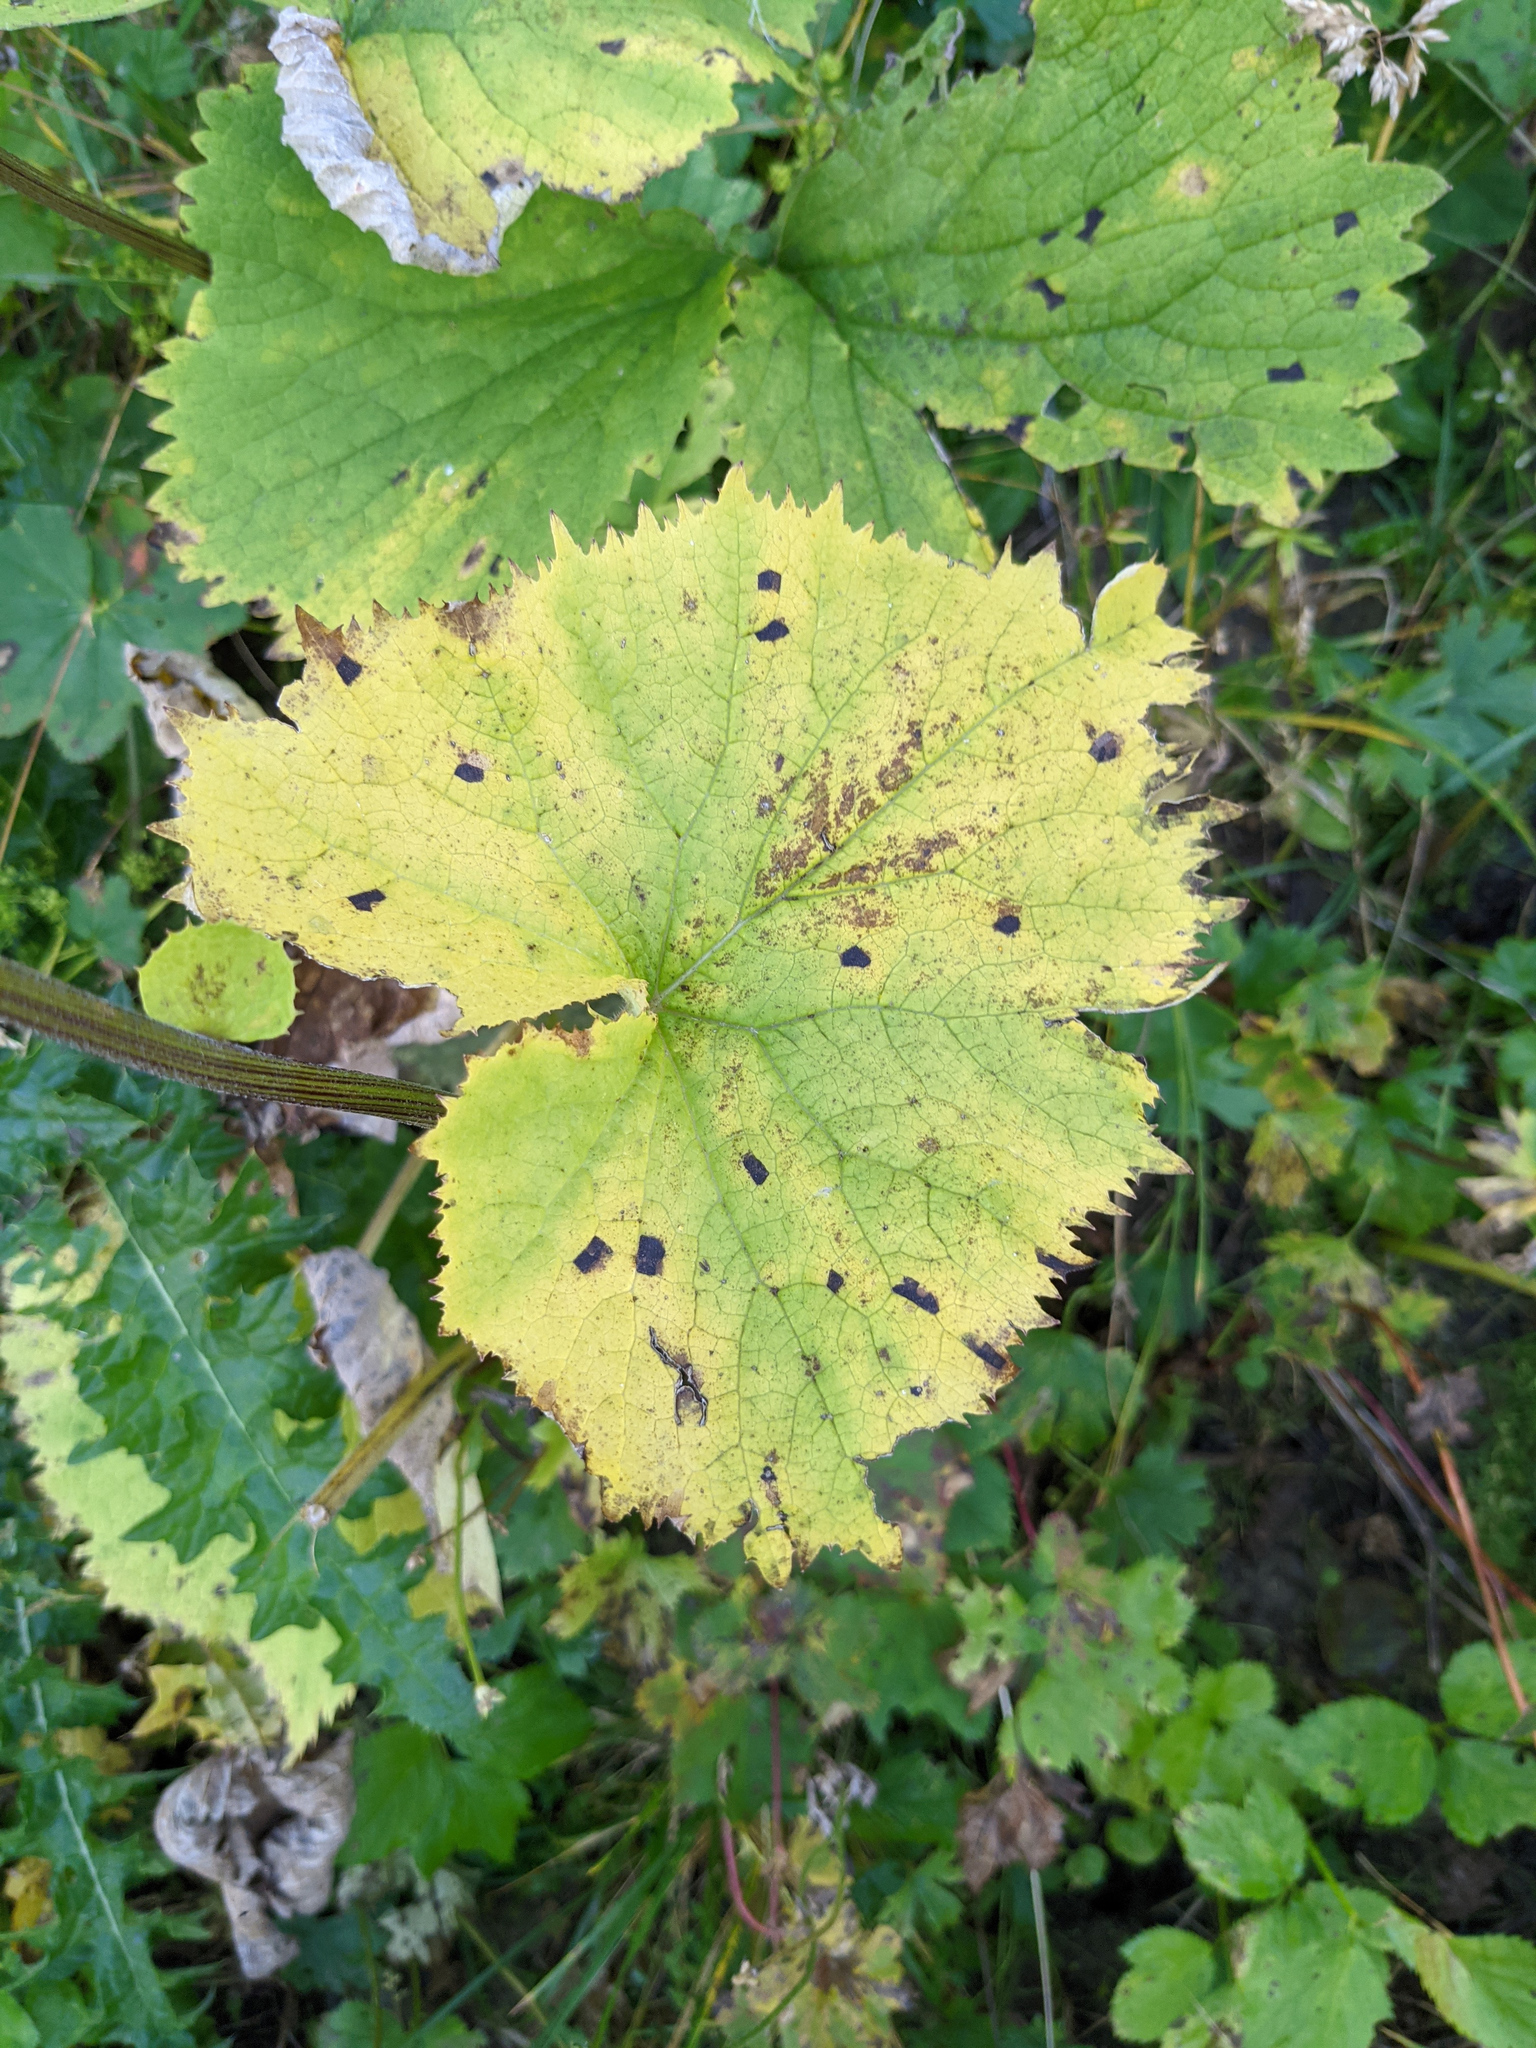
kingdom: Plantae
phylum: Tracheophyta
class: Magnoliopsida
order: Asterales
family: Asteraceae
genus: Adenostyles
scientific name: Adenostyles alliariae
